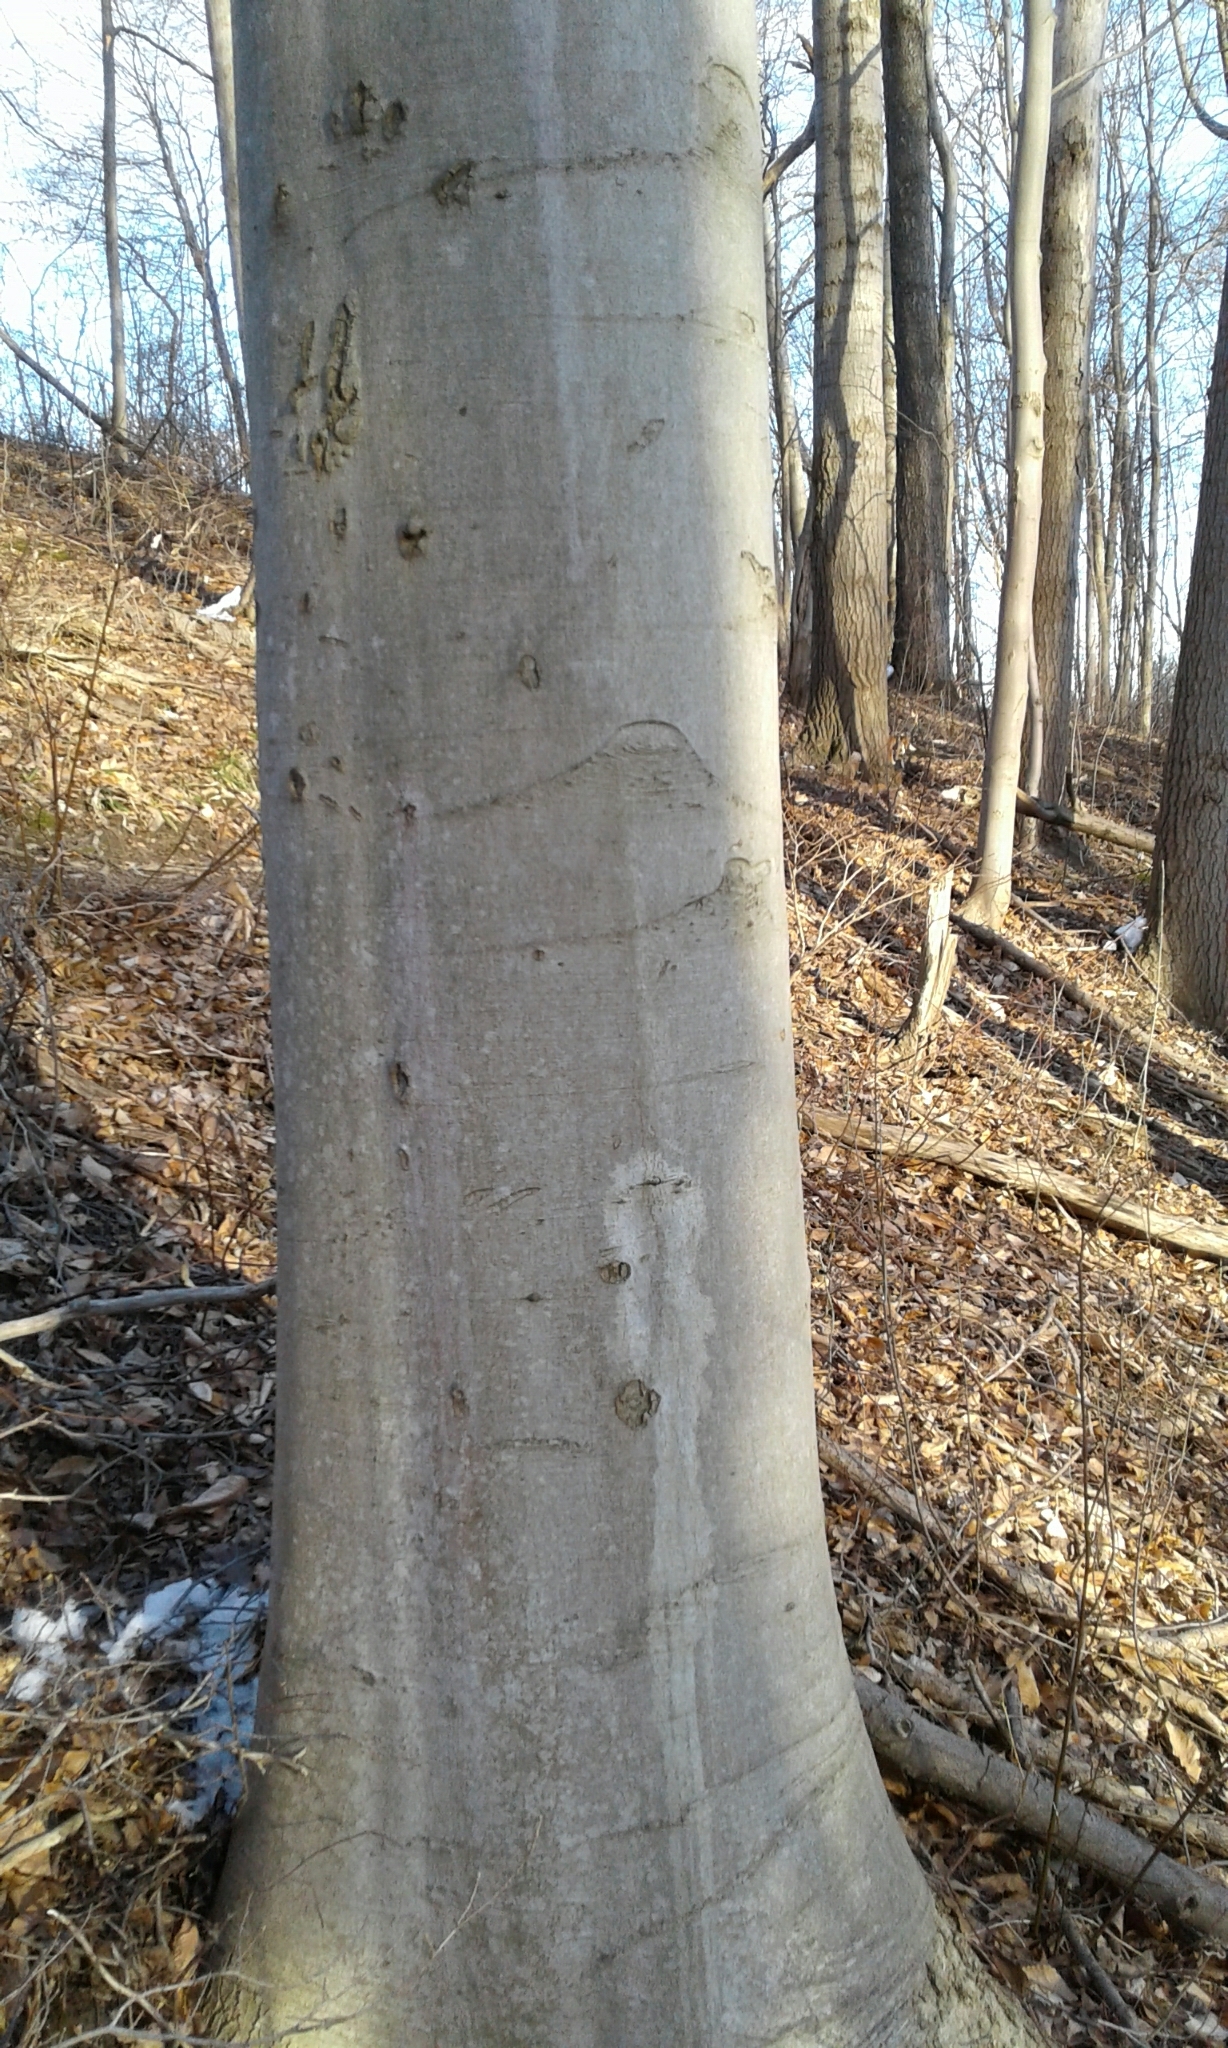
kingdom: Plantae
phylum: Tracheophyta
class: Magnoliopsida
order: Fagales
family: Fagaceae
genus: Fagus
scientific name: Fagus grandifolia
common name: American beech
